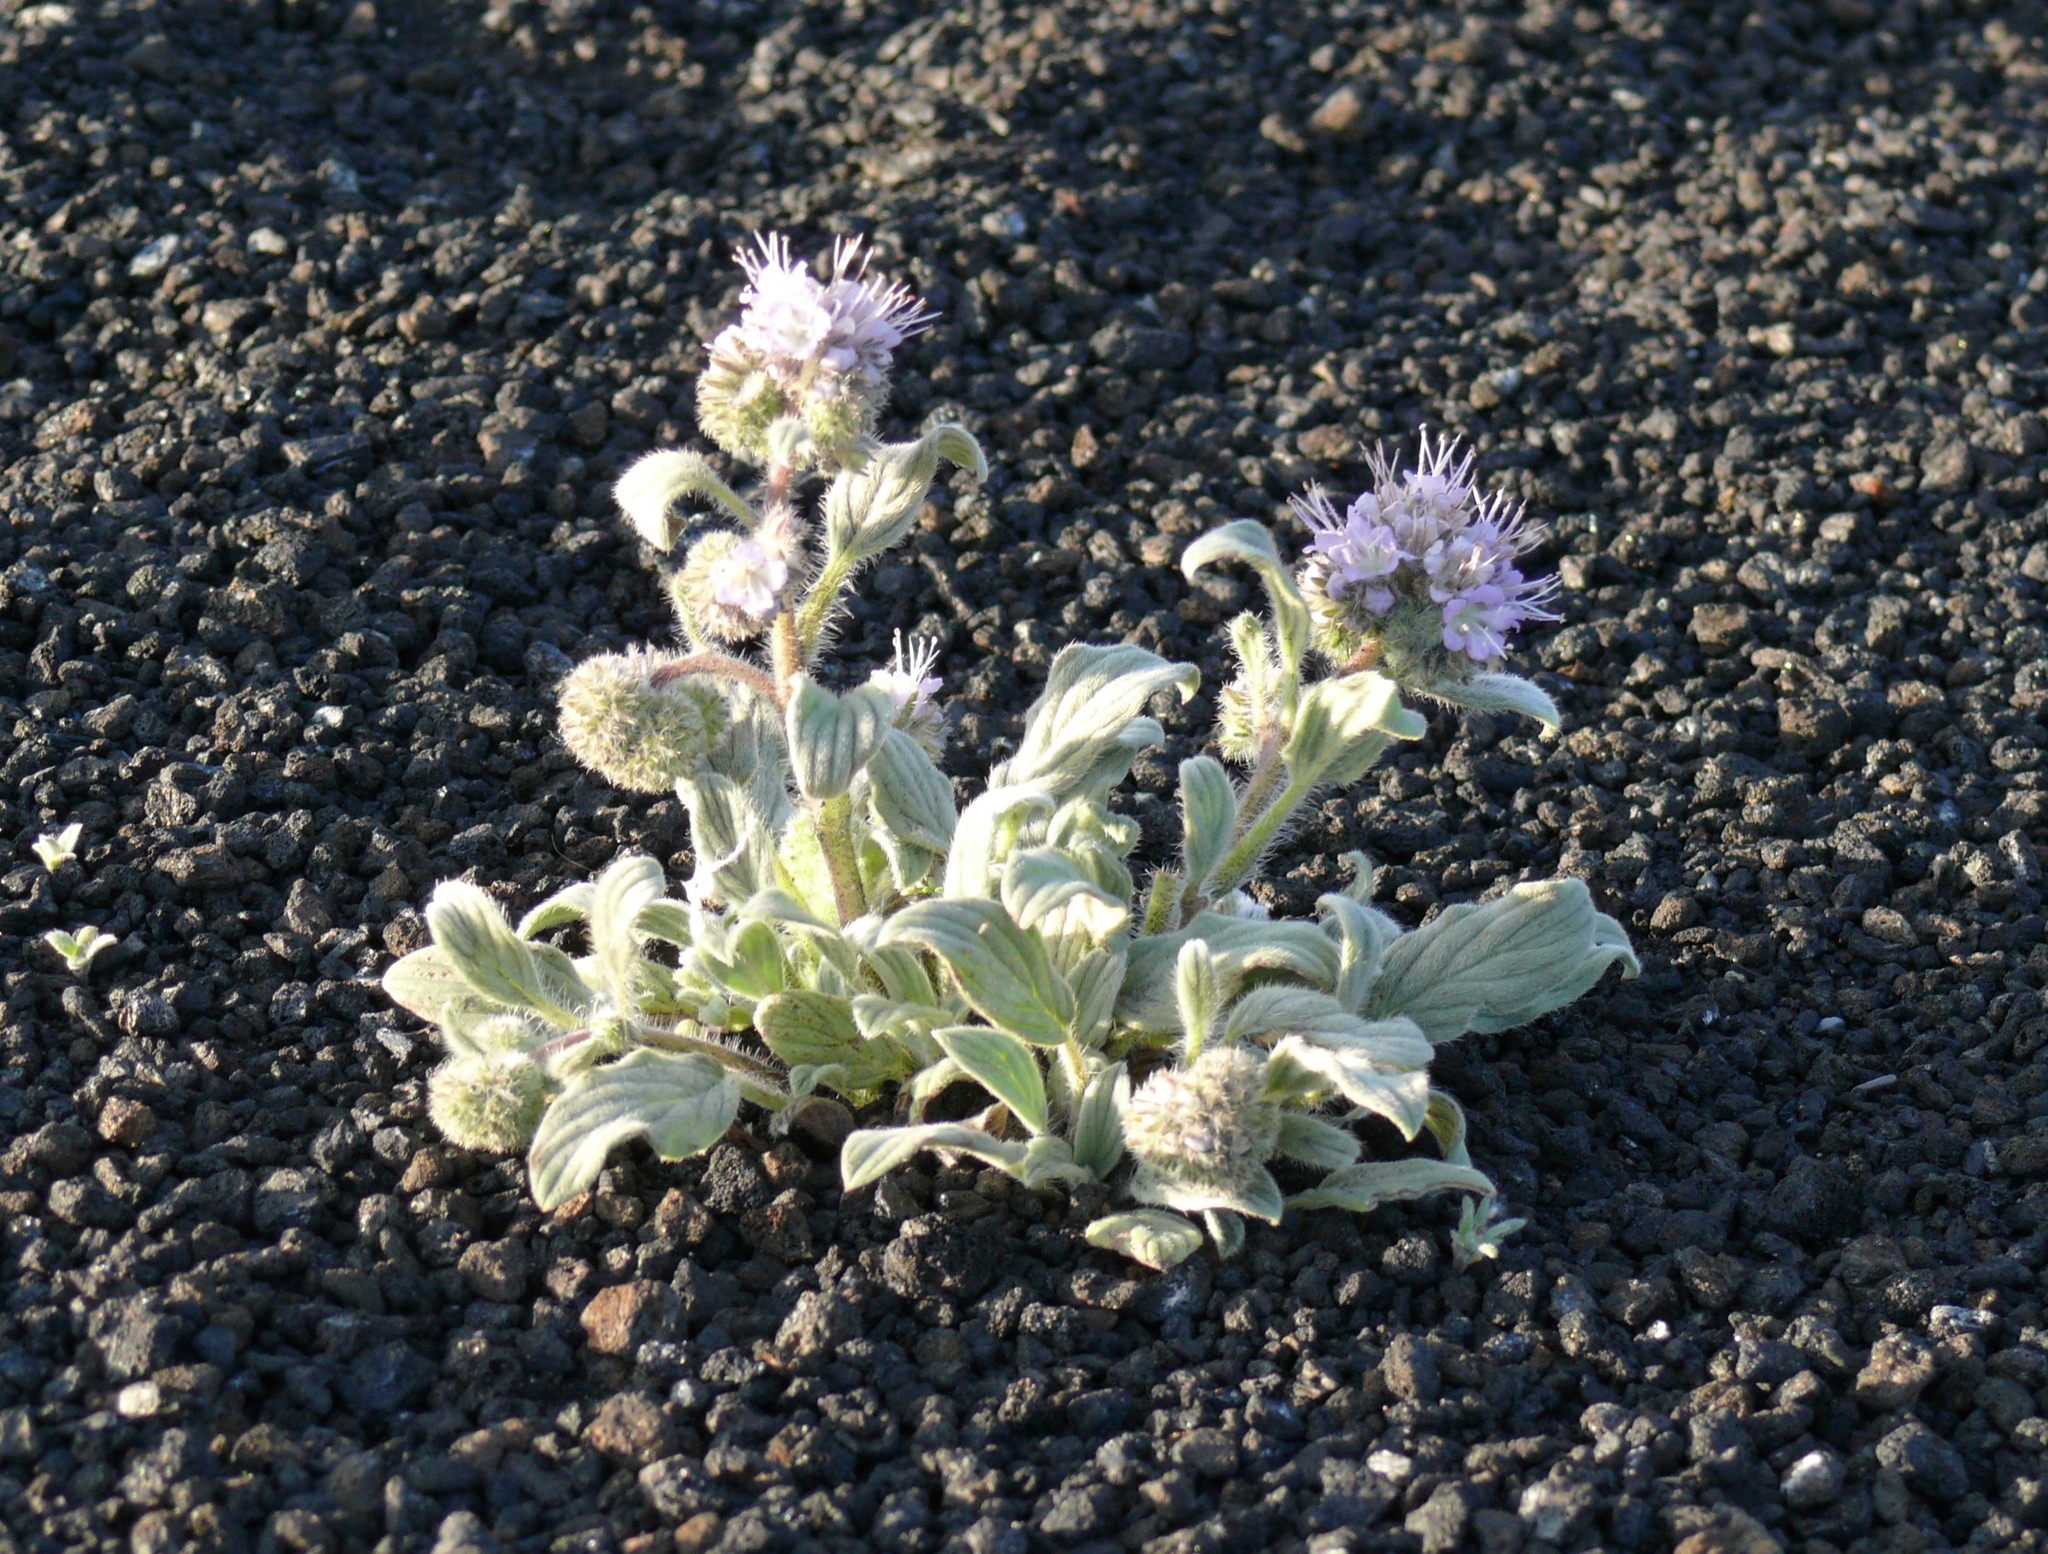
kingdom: Plantae
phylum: Tracheophyta
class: Magnoliopsida
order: Boraginales
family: Hydrophyllaceae
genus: Phacelia
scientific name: Phacelia hastata
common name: Silver-leaved phacelia
